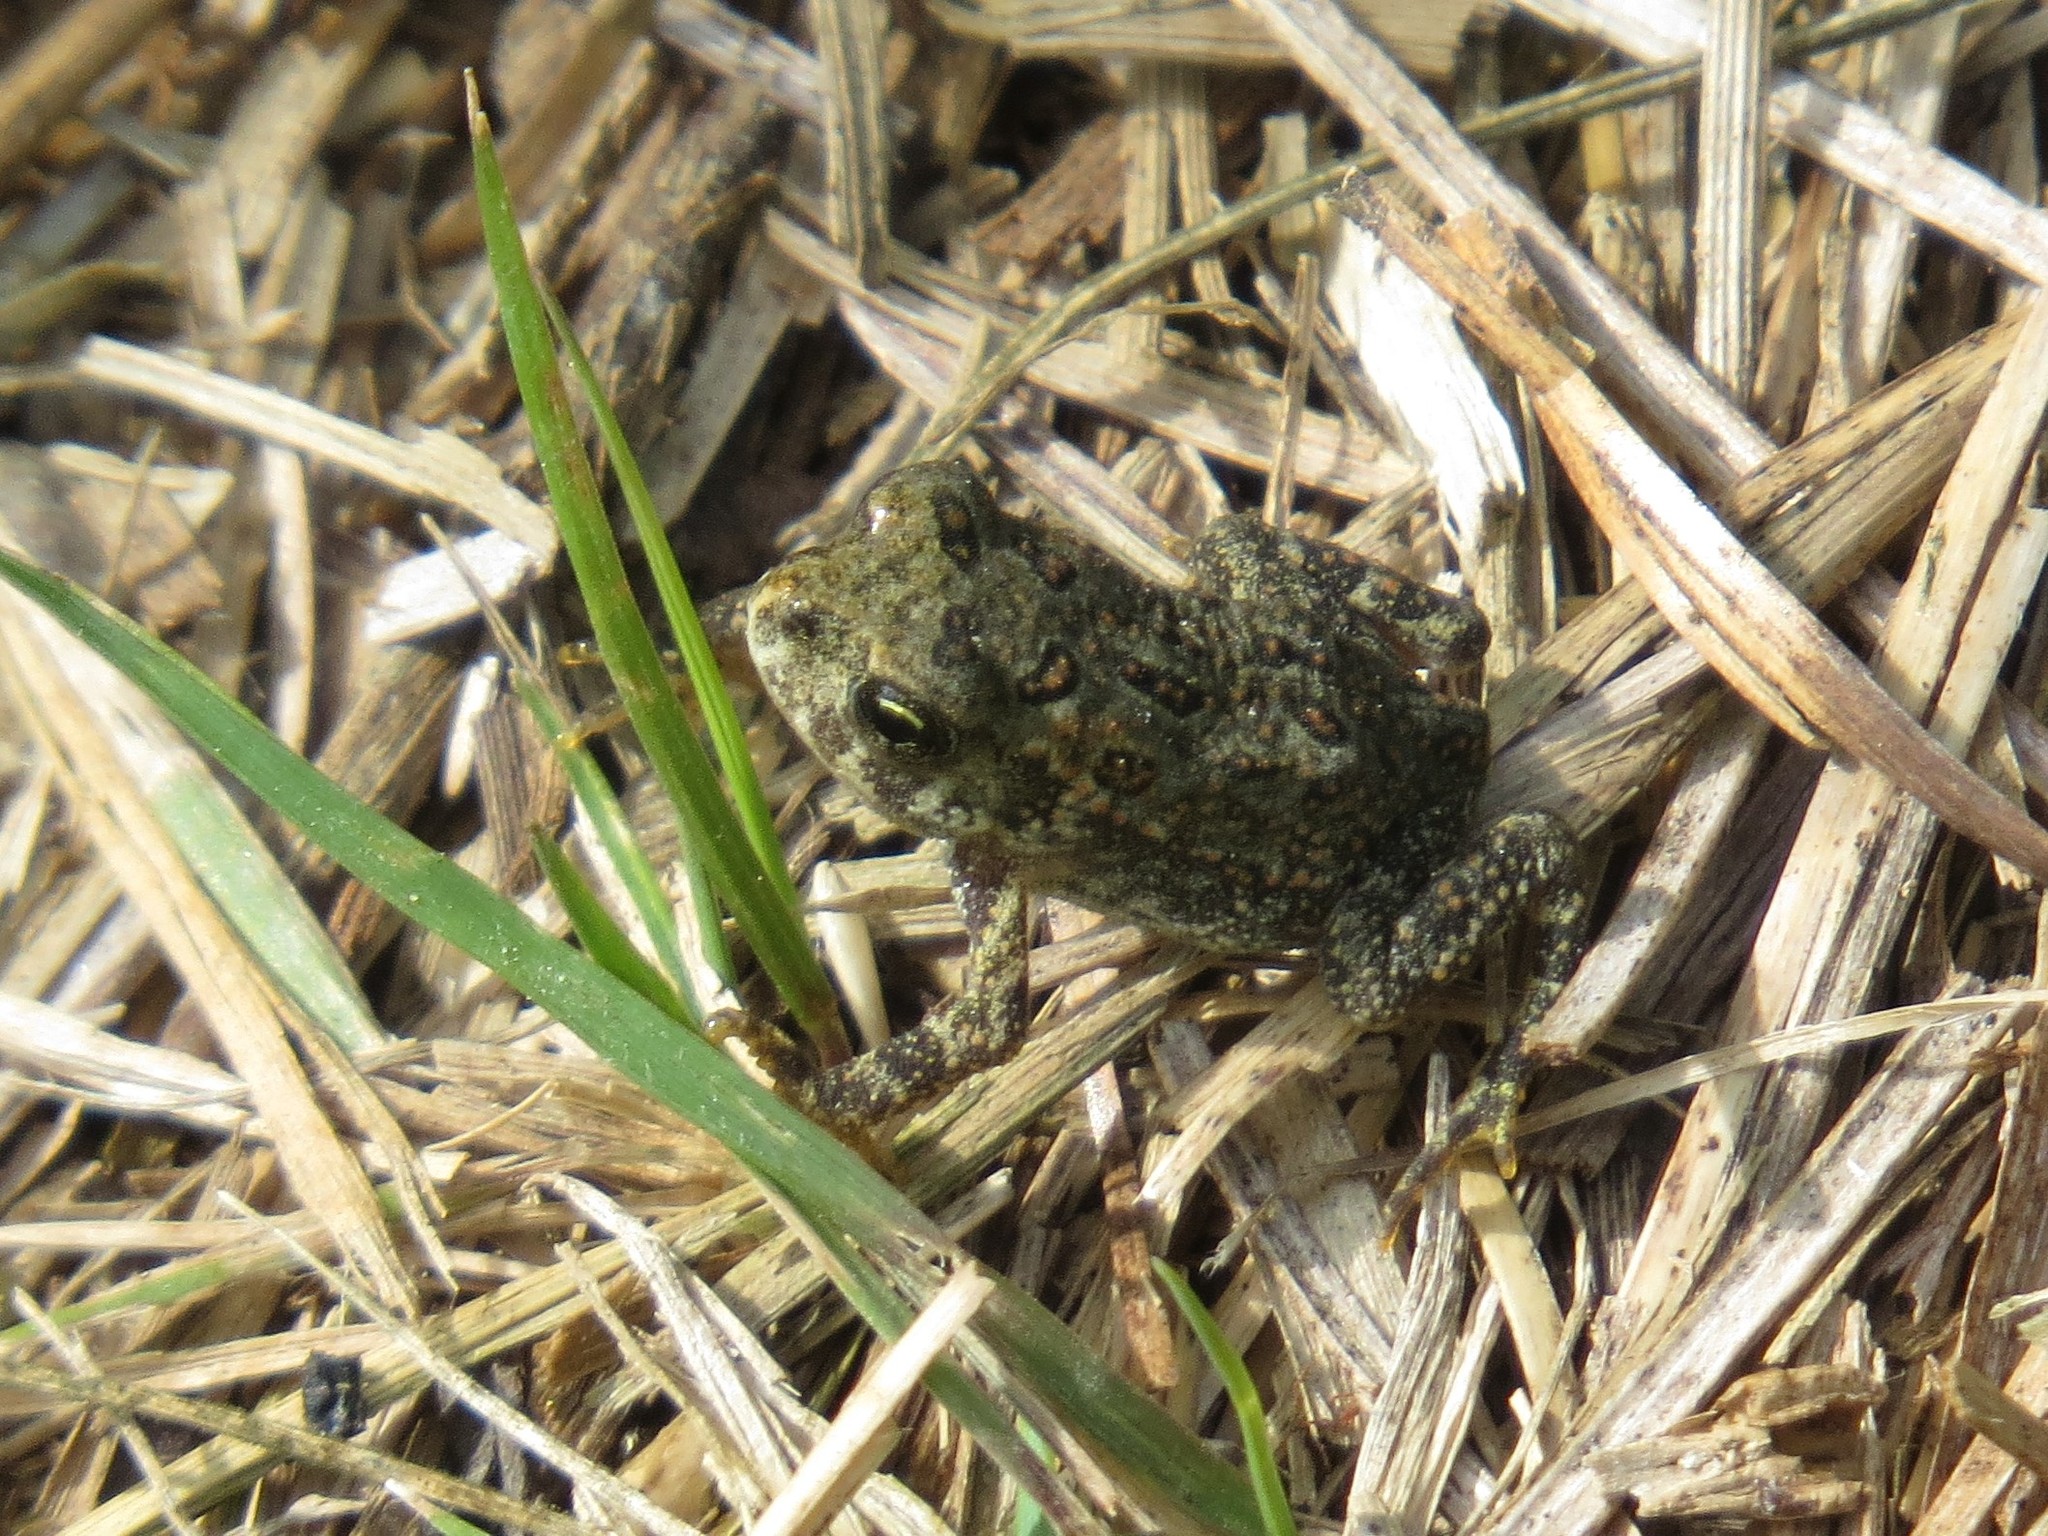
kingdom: Animalia
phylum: Chordata
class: Amphibia
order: Anura
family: Bufonidae
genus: Anaxyrus
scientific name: Anaxyrus americanus
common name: American toad
